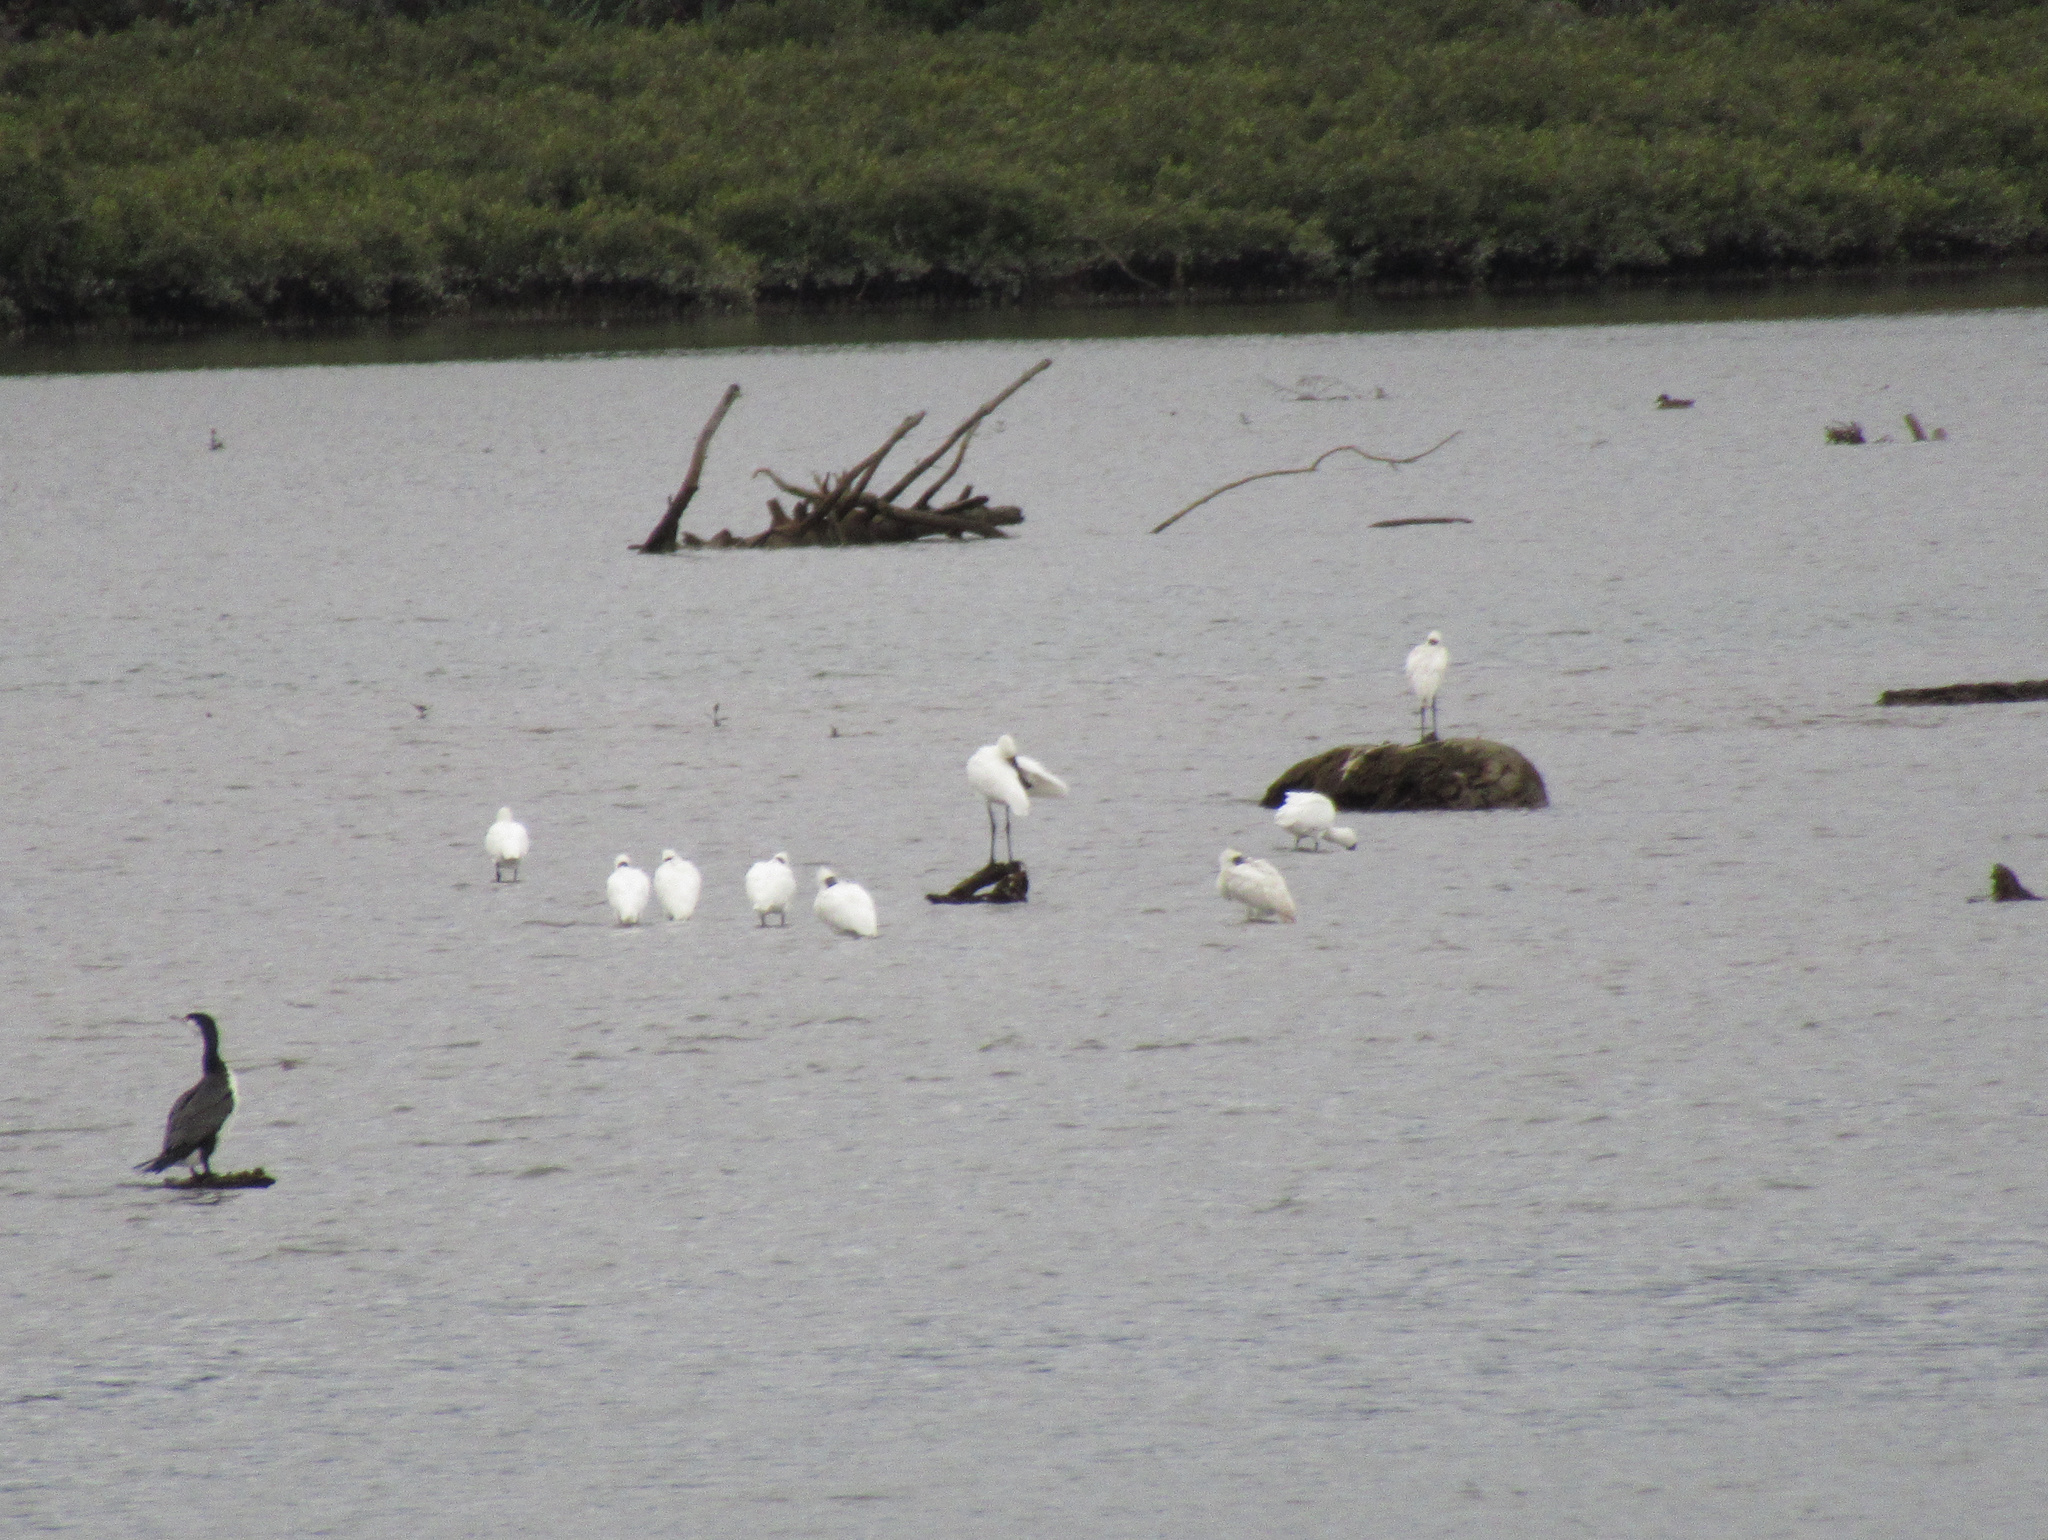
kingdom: Animalia
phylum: Chordata
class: Aves
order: Pelecaniformes
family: Threskiornithidae
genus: Platalea
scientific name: Platalea regia
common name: Royal spoonbill
